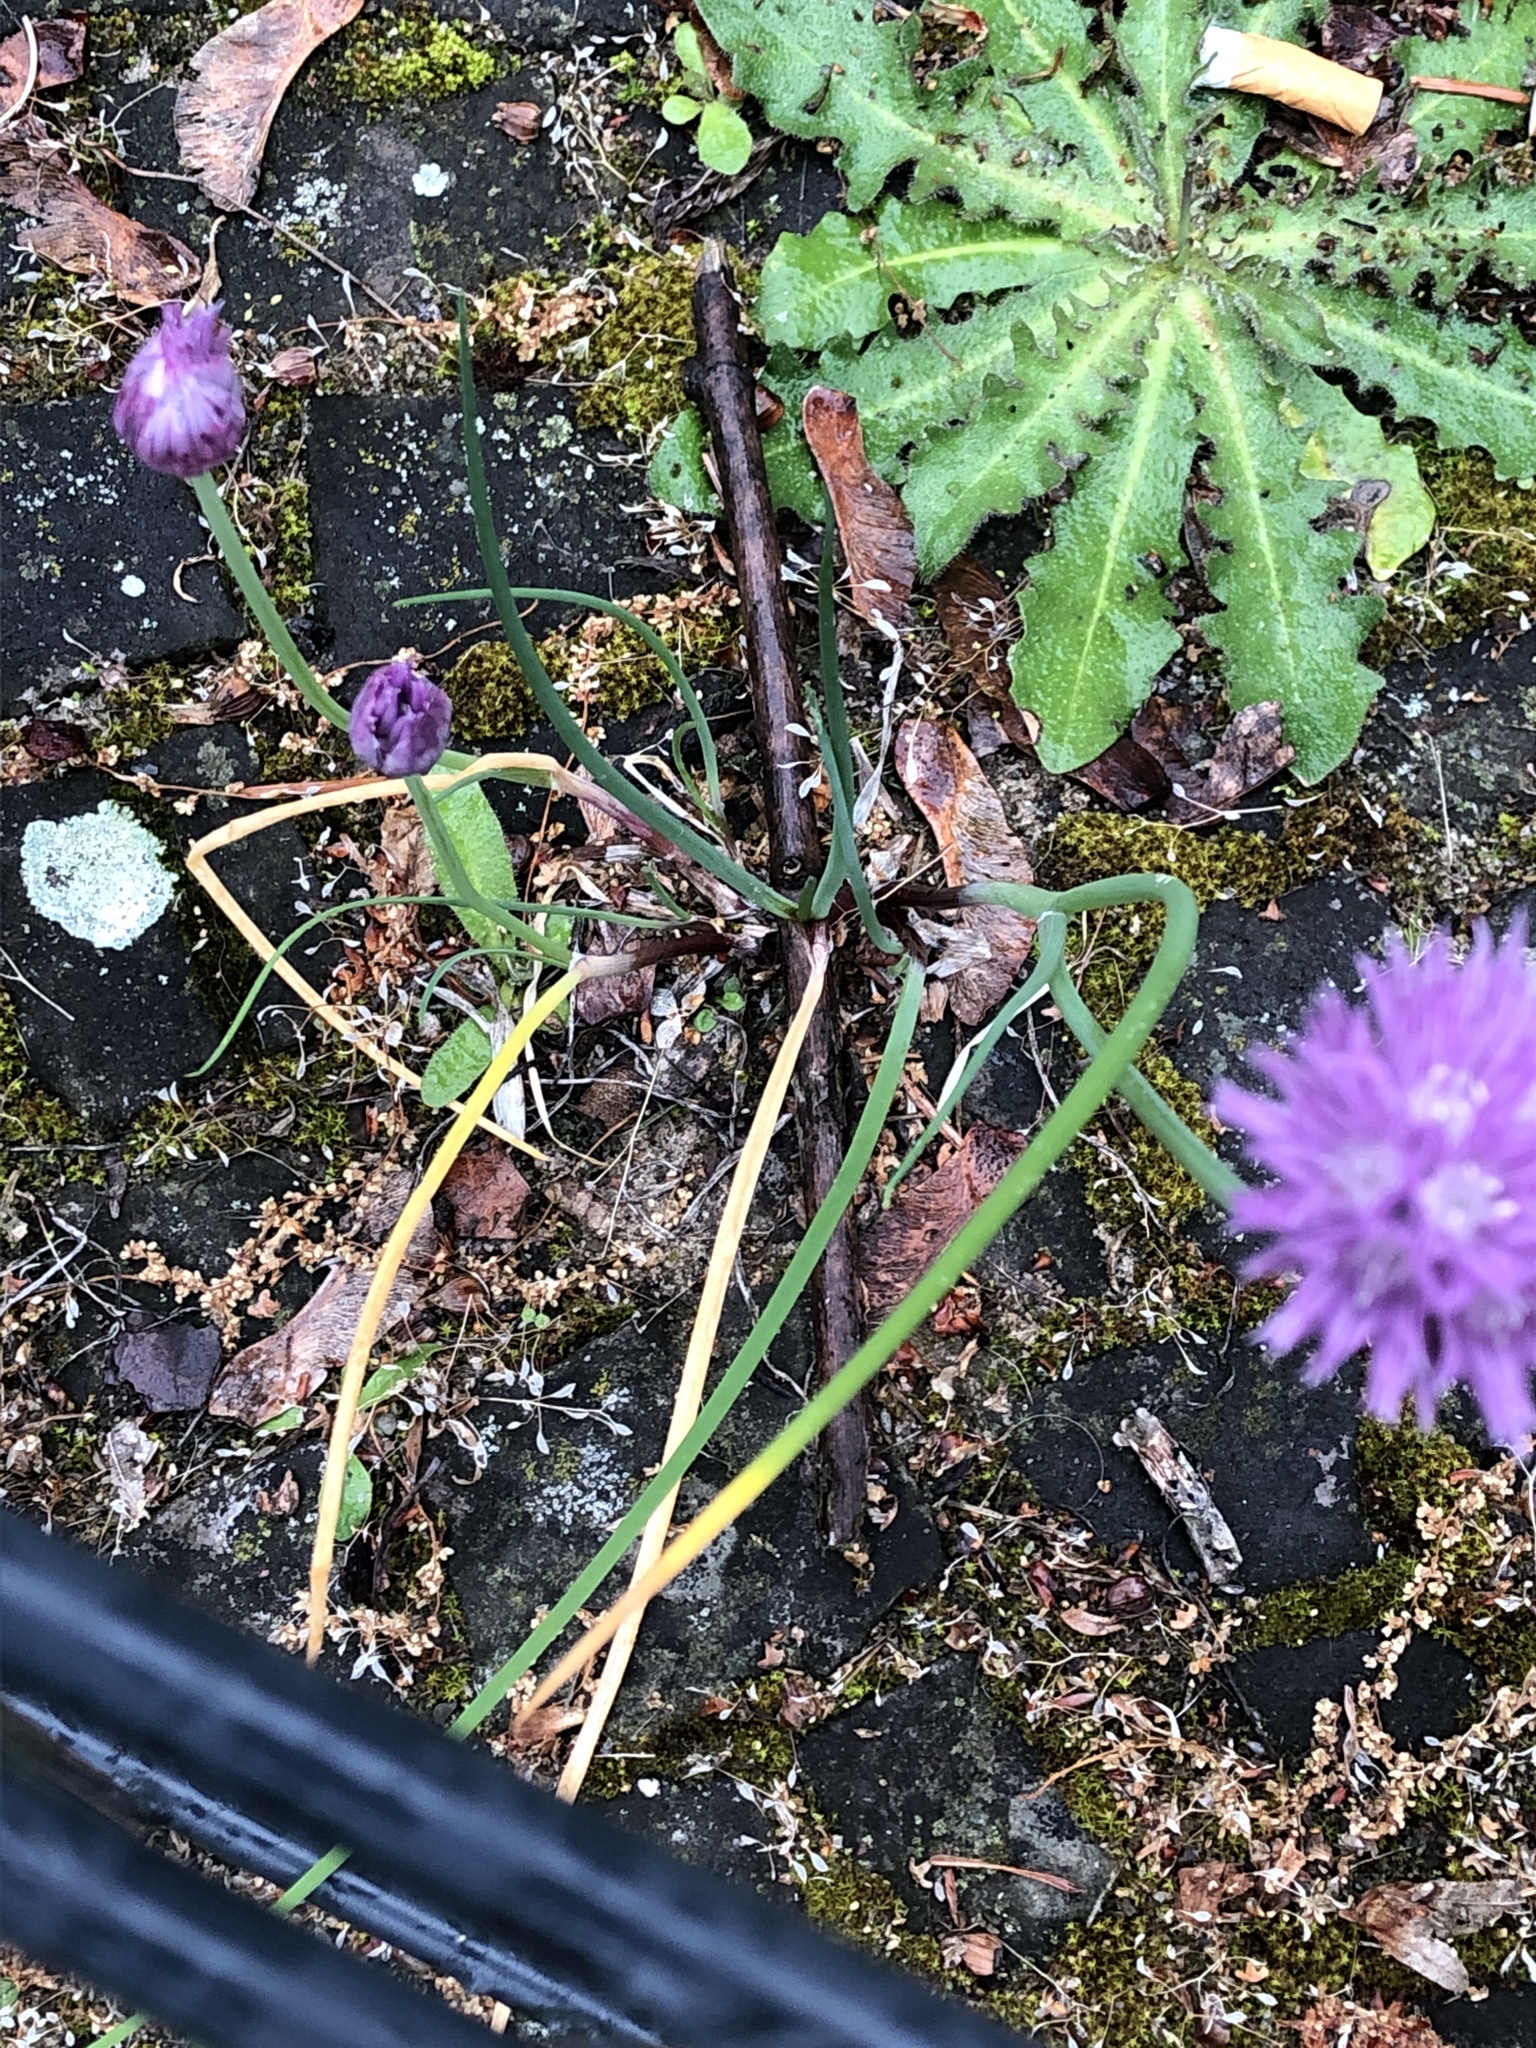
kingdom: Plantae
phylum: Tracheophyta
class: Liliopsida
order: Asparagales
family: Amaryllidaceae
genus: Allium
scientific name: Allium schoenoprasum
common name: Chives
